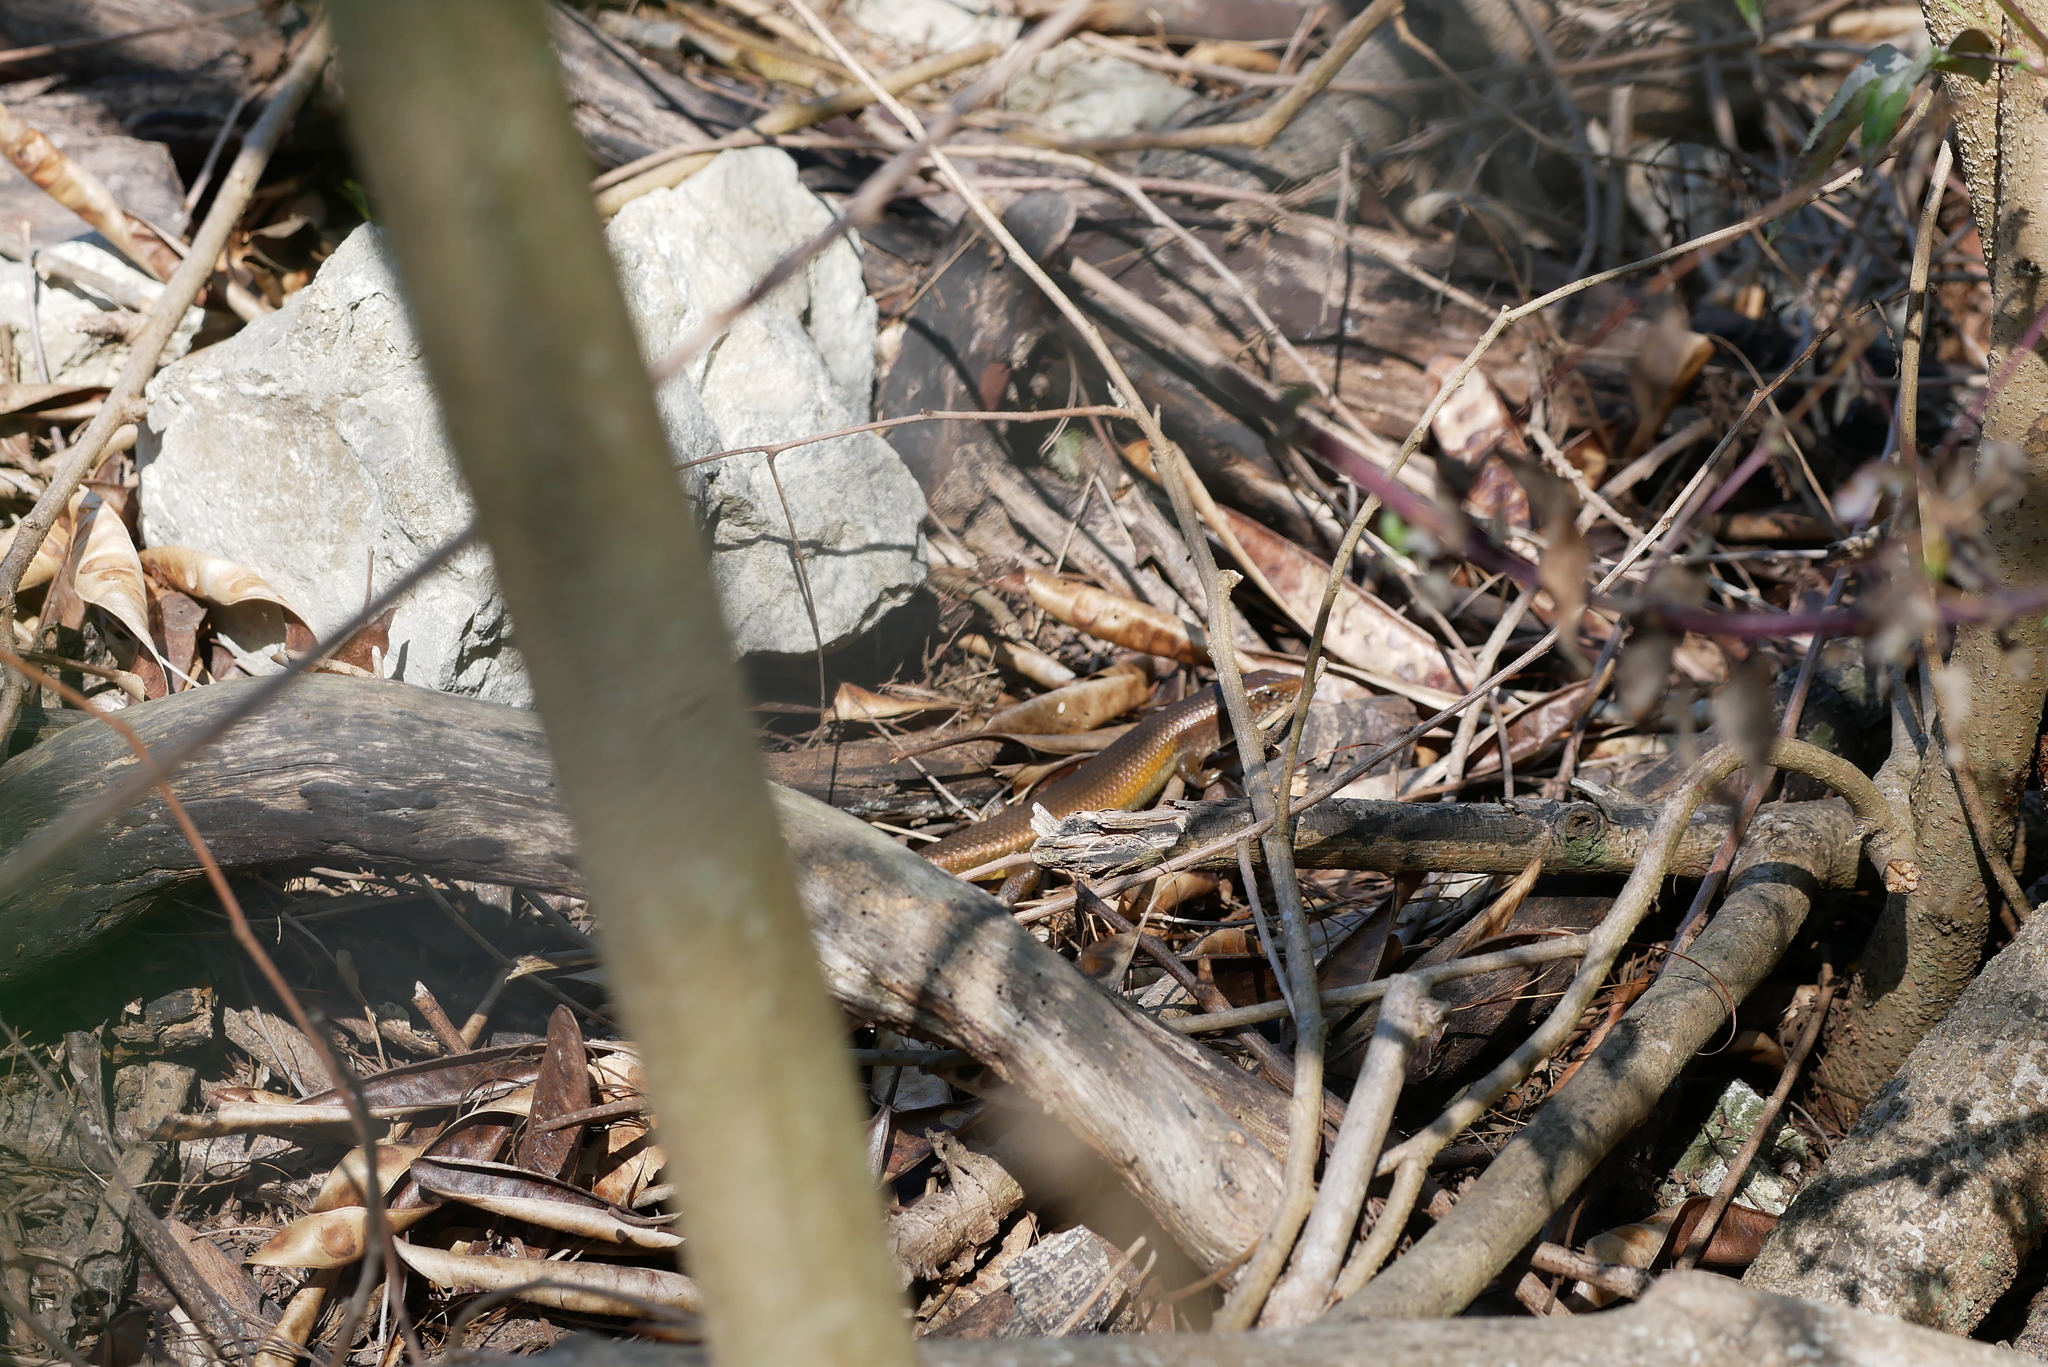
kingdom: Animalia
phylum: Chordata
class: Squamata
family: Scincidae
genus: Eutropis
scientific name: Eutropis multifasciata
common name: Common mabuya
